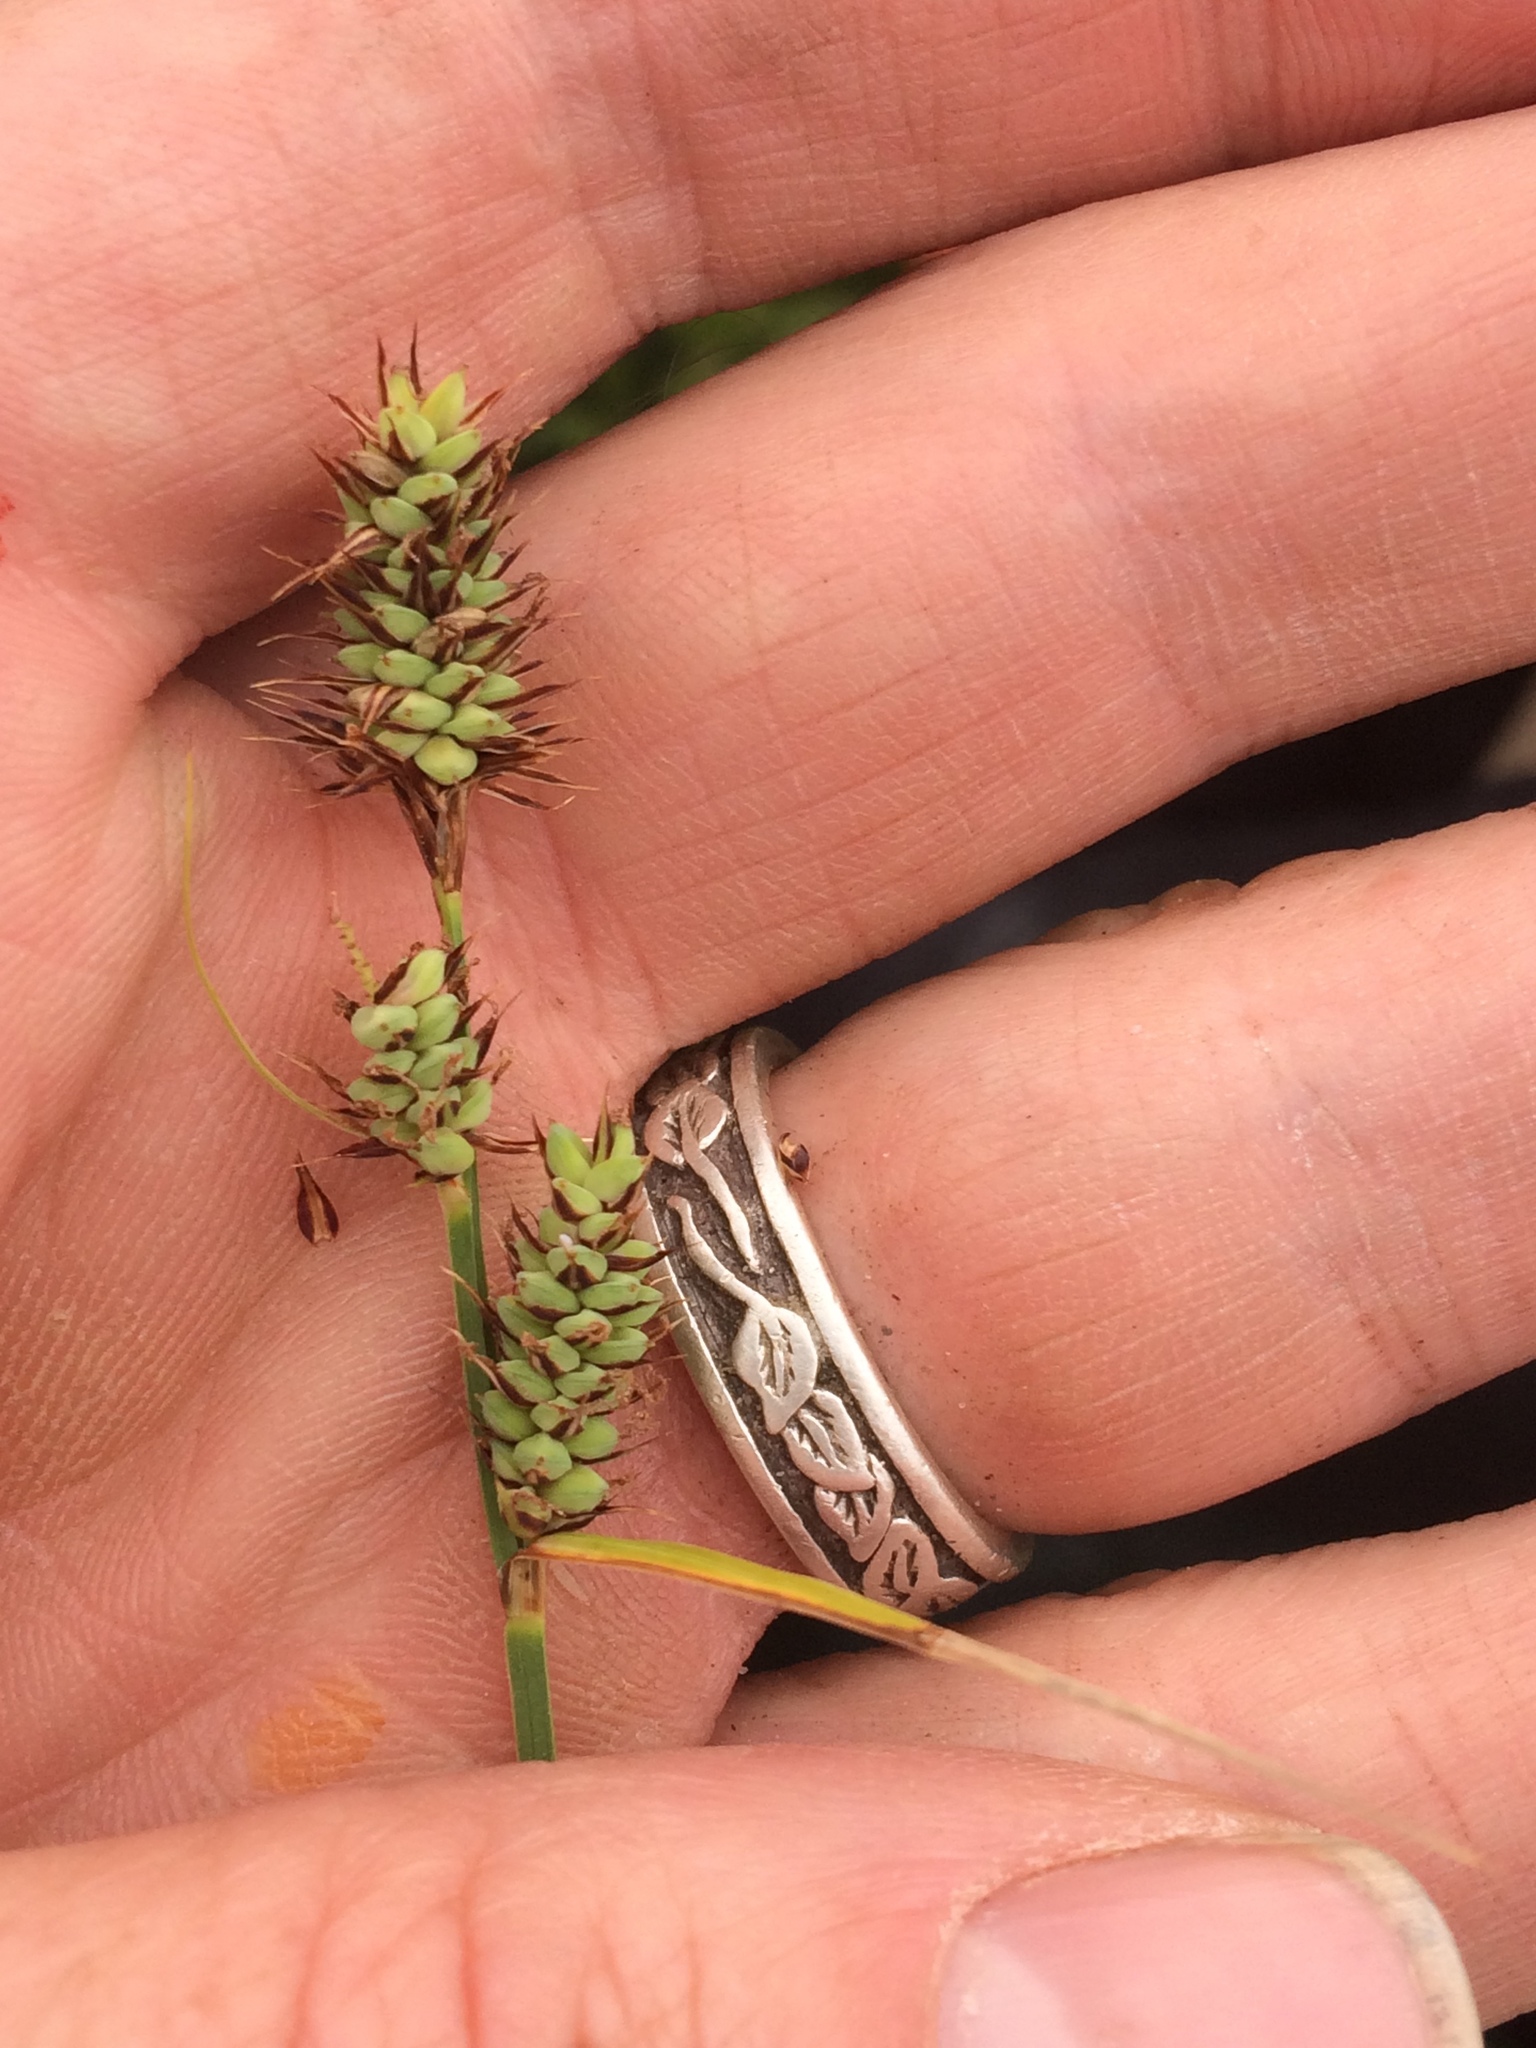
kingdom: Plantae
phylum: Tracheophyta
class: Liliopsida
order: Poales
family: Cyperaceae
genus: Carex
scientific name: Carex buxbaumii
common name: Club sedge
